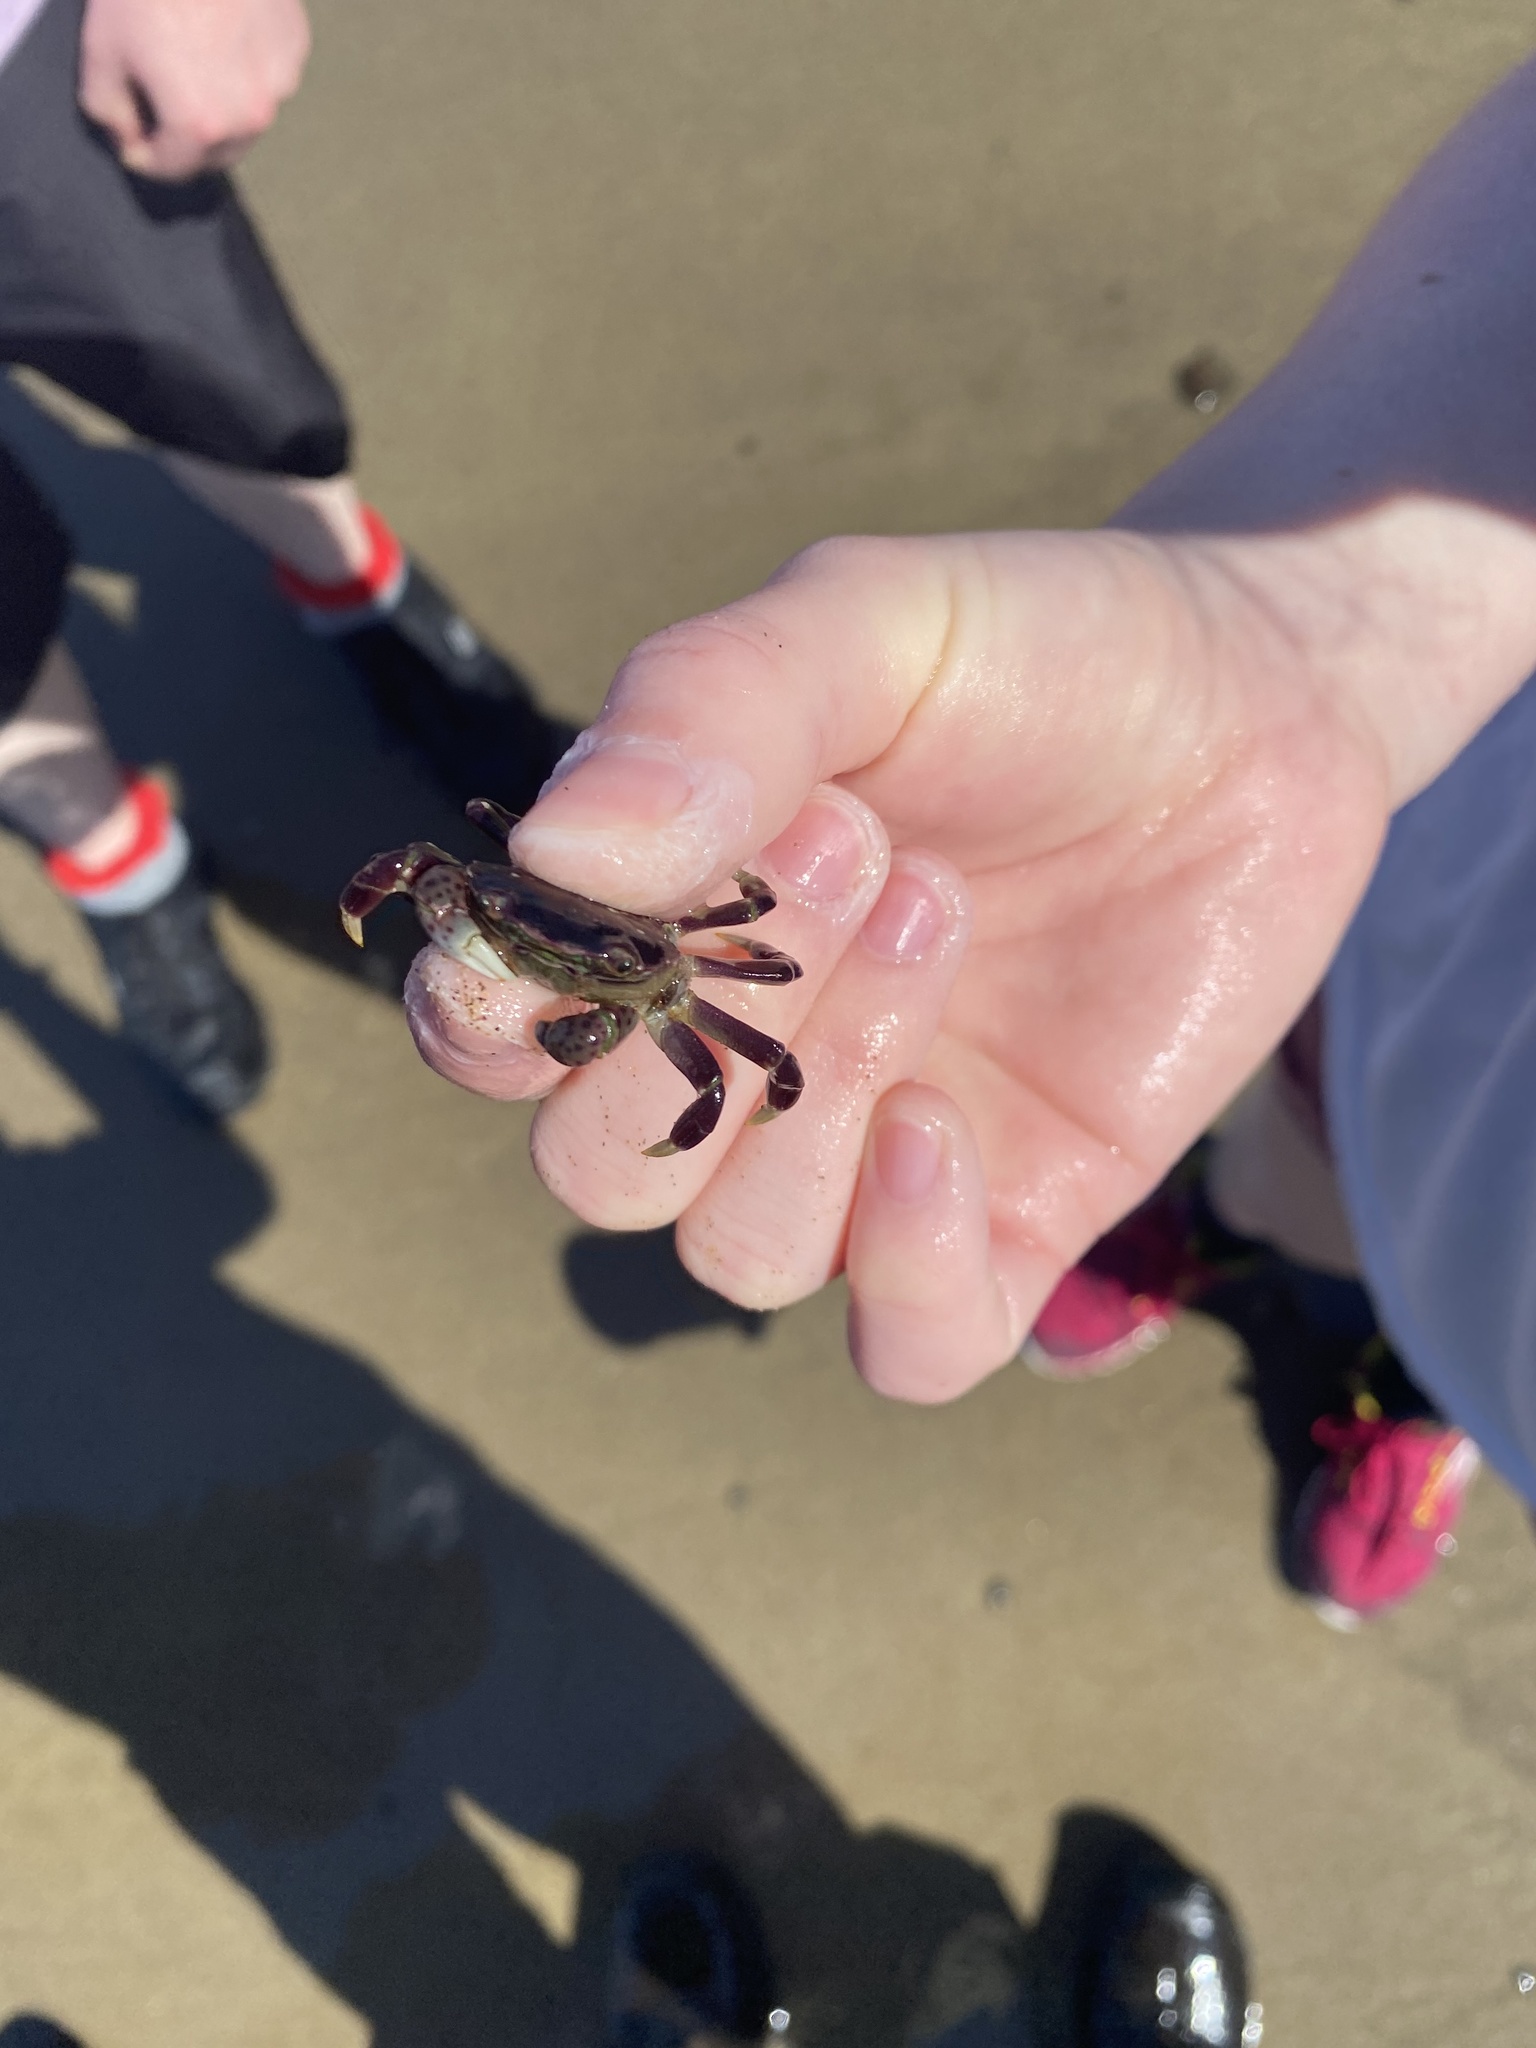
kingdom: Animalia
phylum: Arthropoda
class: Malacostraca
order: Decapoda
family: Varunidae
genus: Hemigrapsus
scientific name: Hemigrapsus nudus
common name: Purple shore crab
